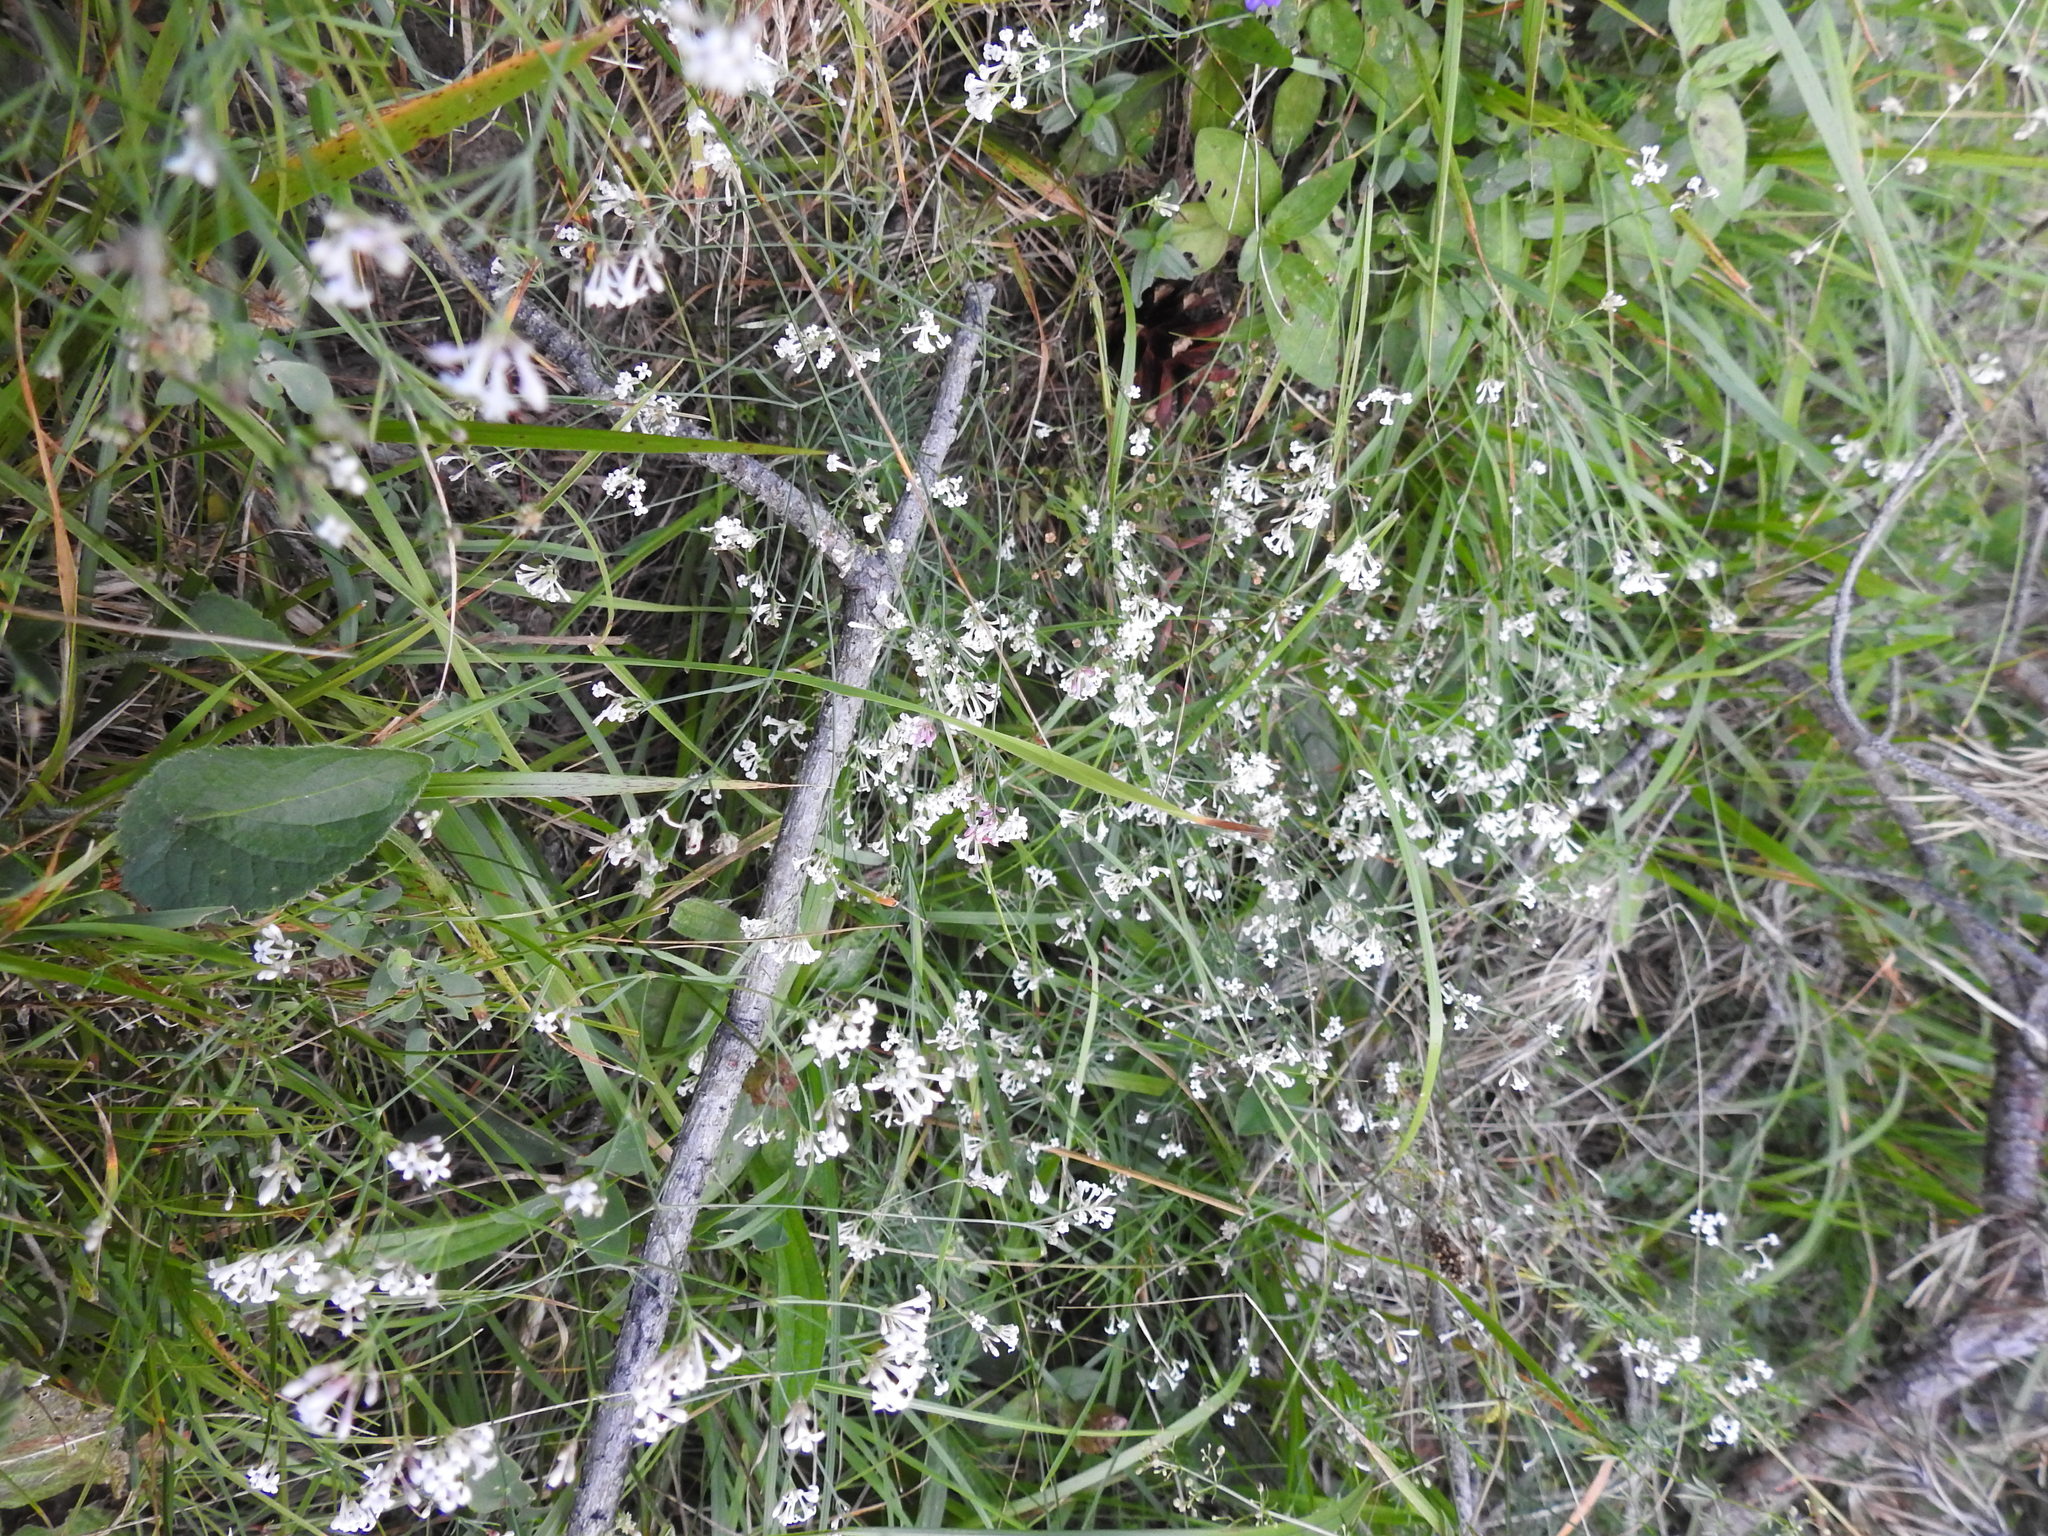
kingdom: Plantae
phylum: Tracheophyta
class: Magnoliopsida
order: Gentianales
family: Rubiaceae
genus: Cynanchica
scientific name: Cynanchica pyrenaica
